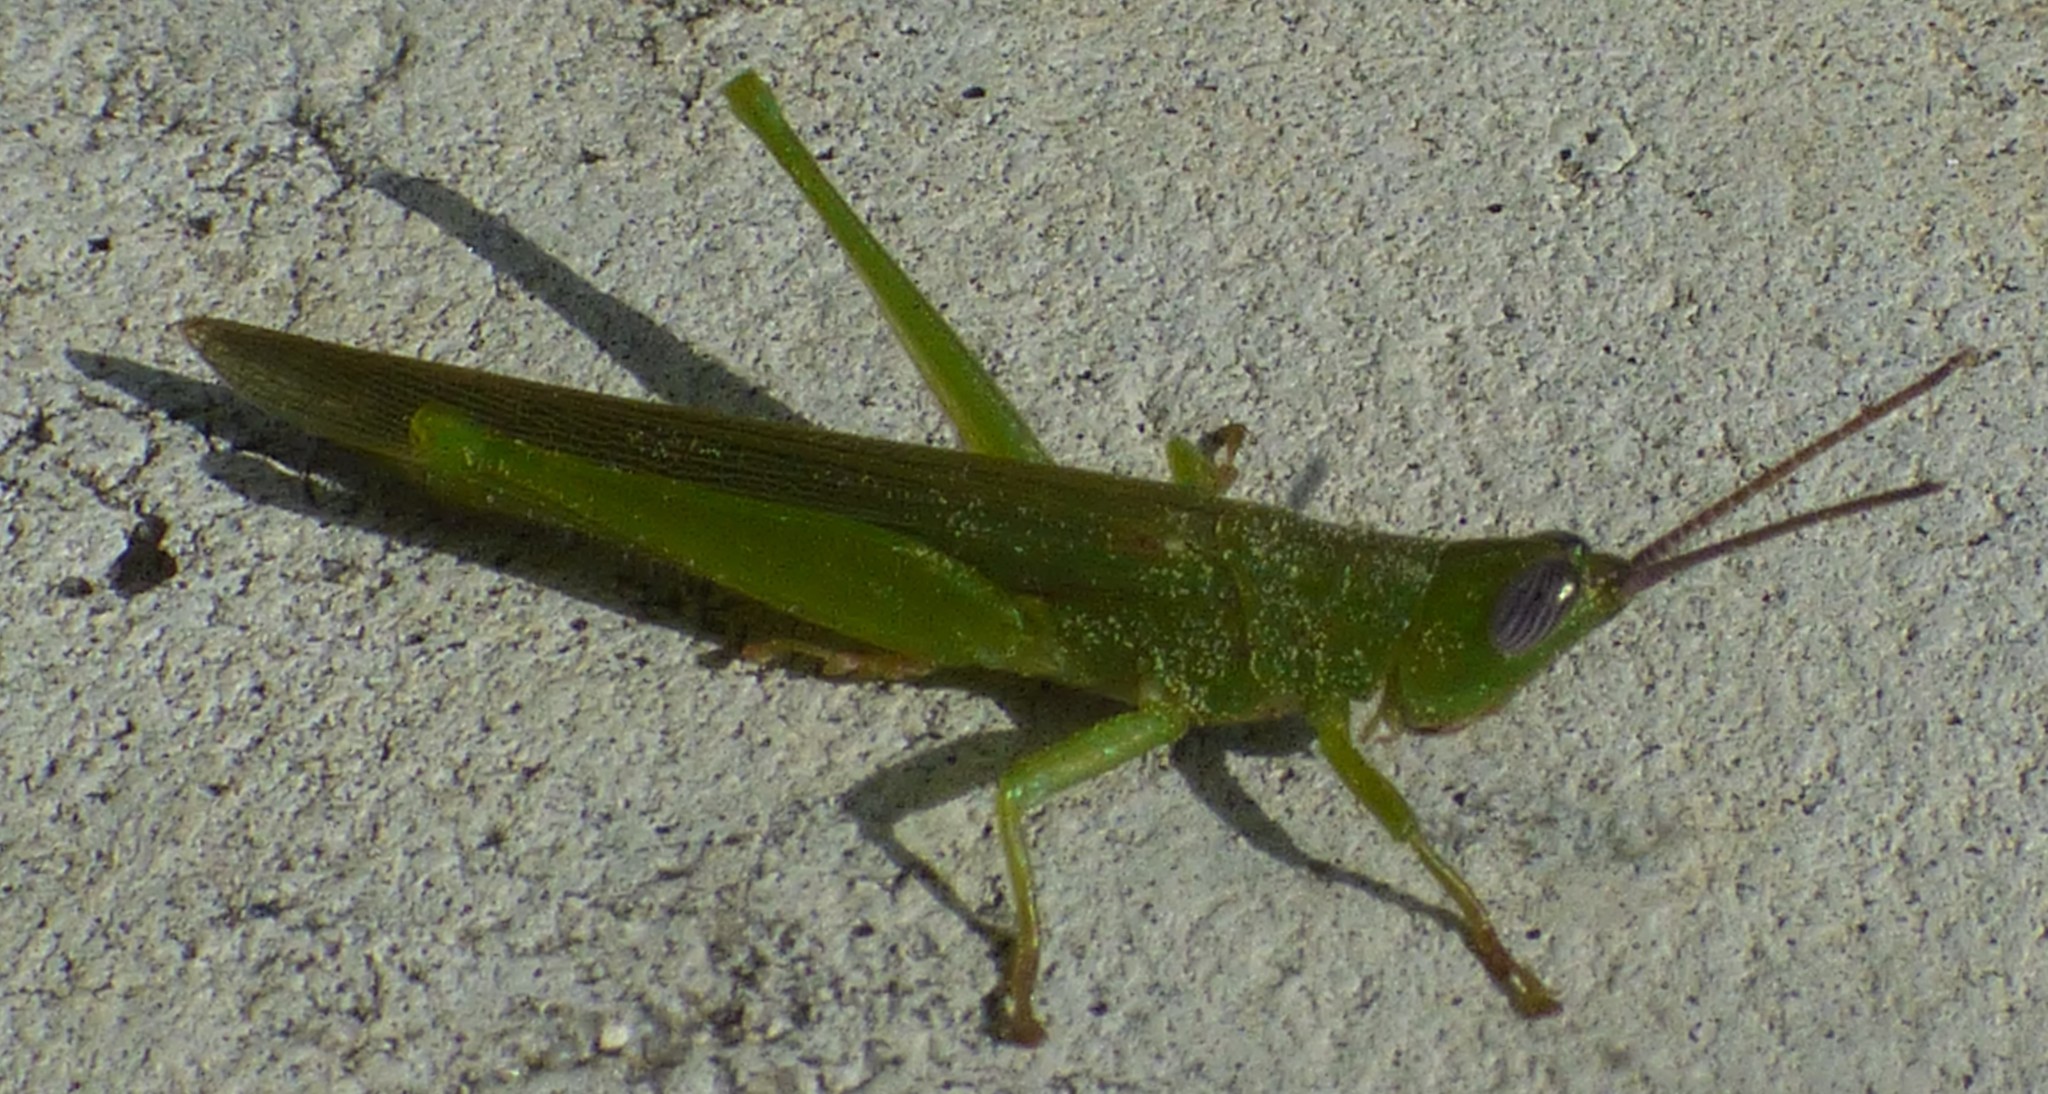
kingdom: Animalia
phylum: Arthropoda
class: Insecta
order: Orthoptera
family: Acrididae
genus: Stenacris
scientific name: Stenacris vitreipennis
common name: Glassy-winged toothpick grasshopper
